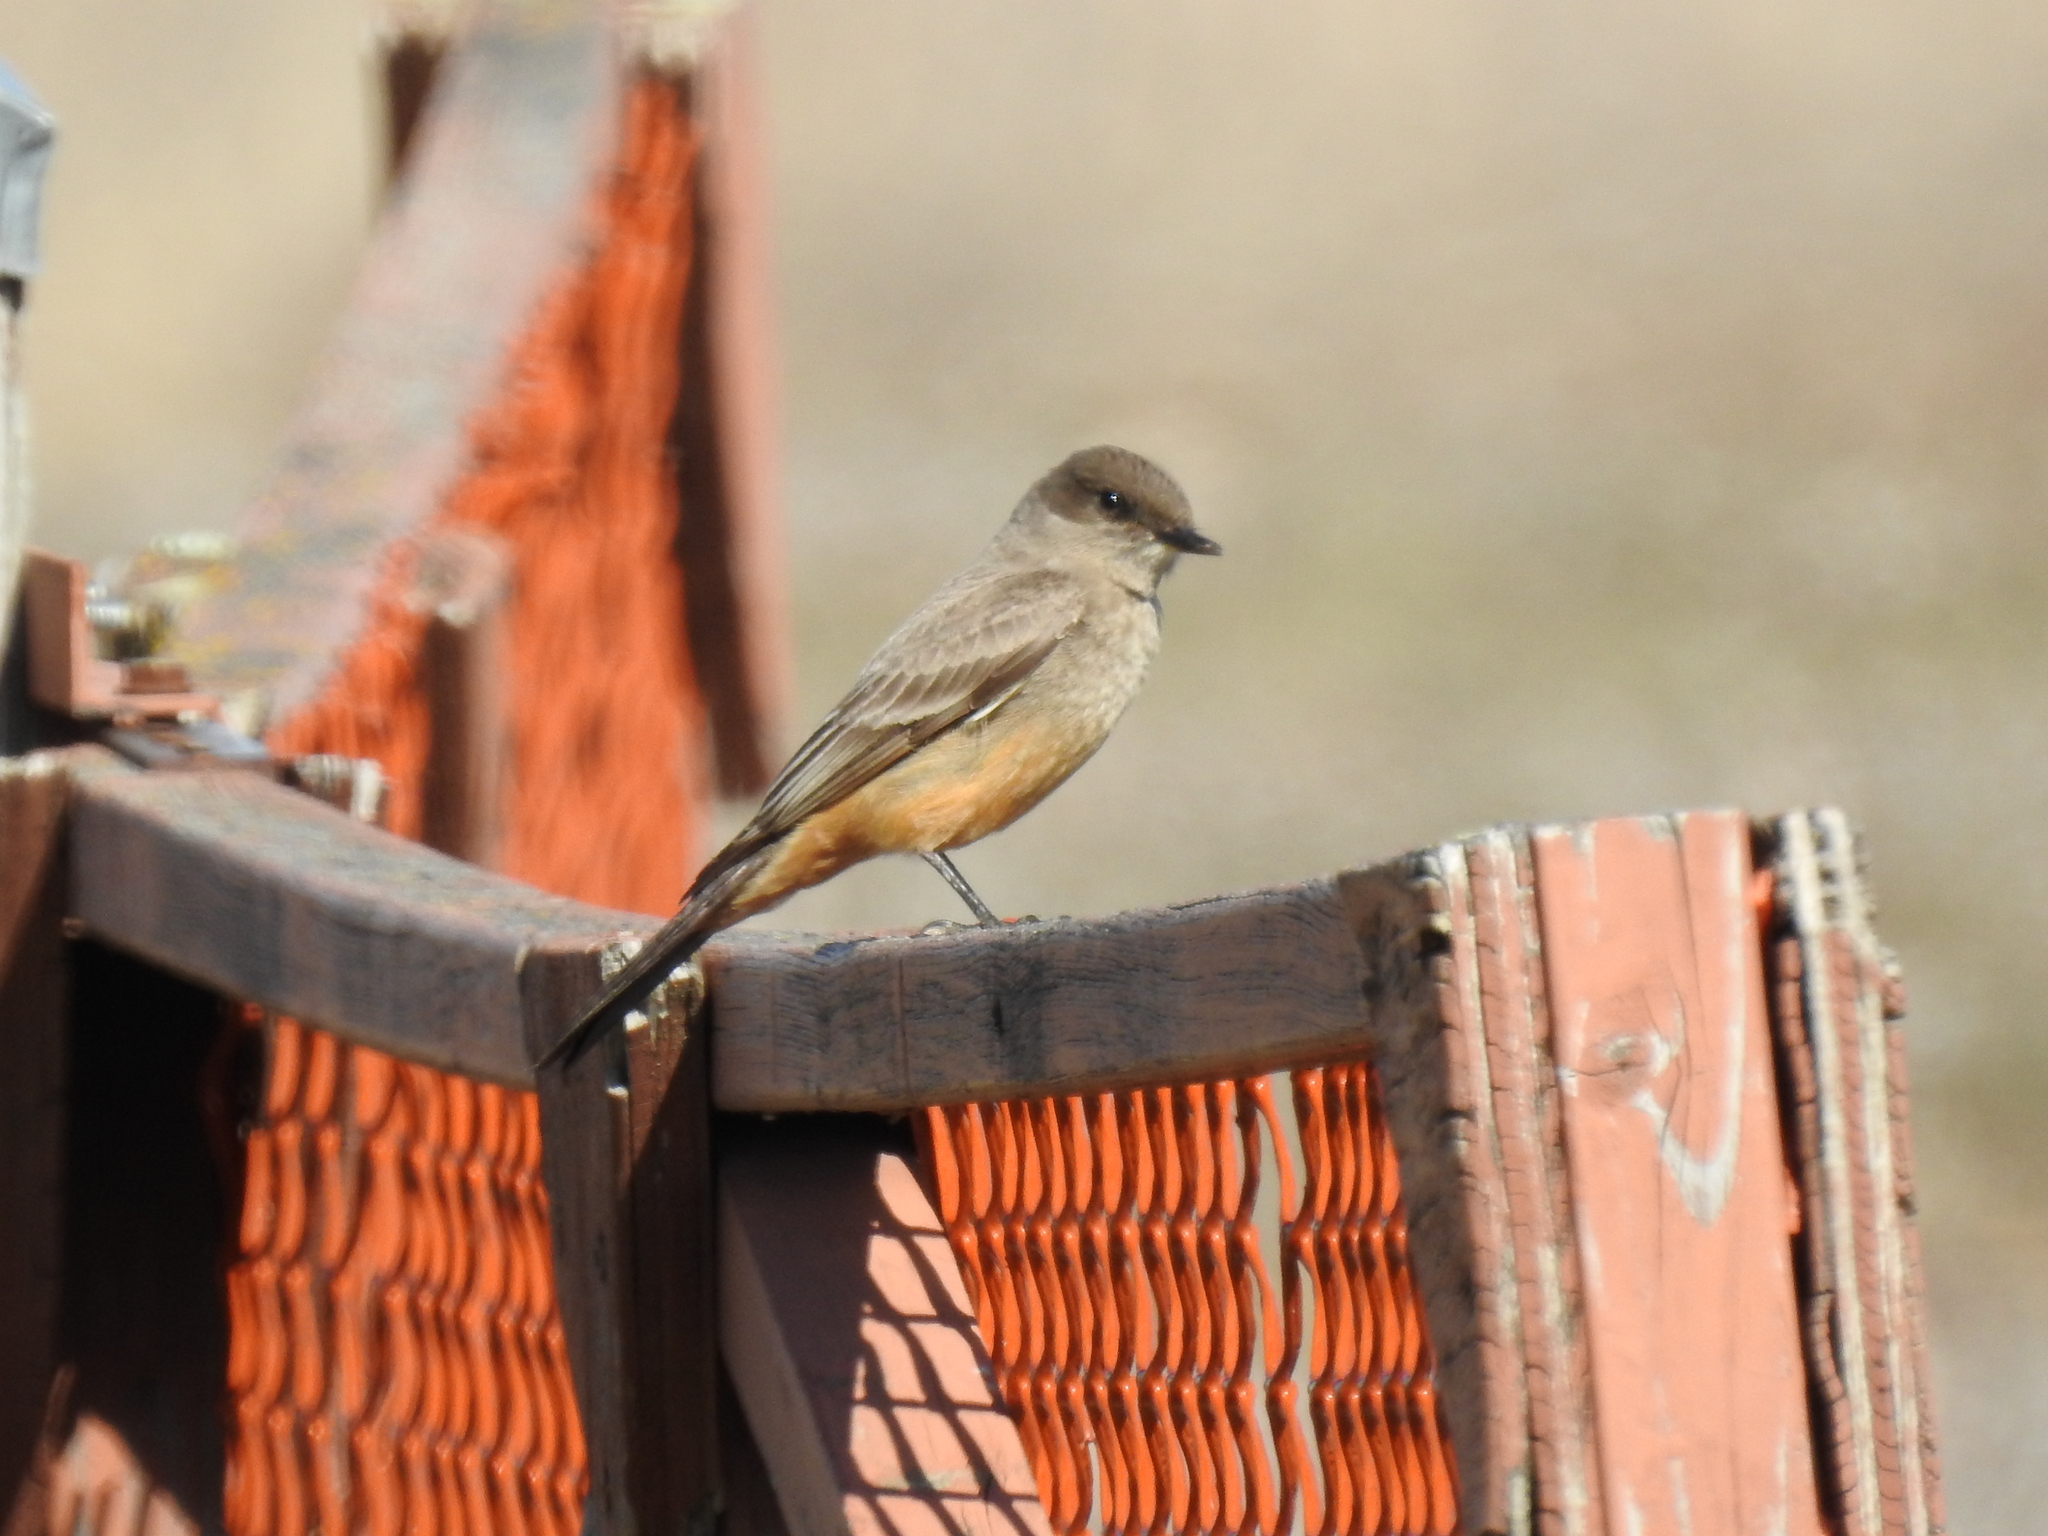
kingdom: Animalia
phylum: Chordata
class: Aves
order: Passeriformes
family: Tyrannidae
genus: Sayornis
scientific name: Sayornis saya
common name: Say's phoebe
